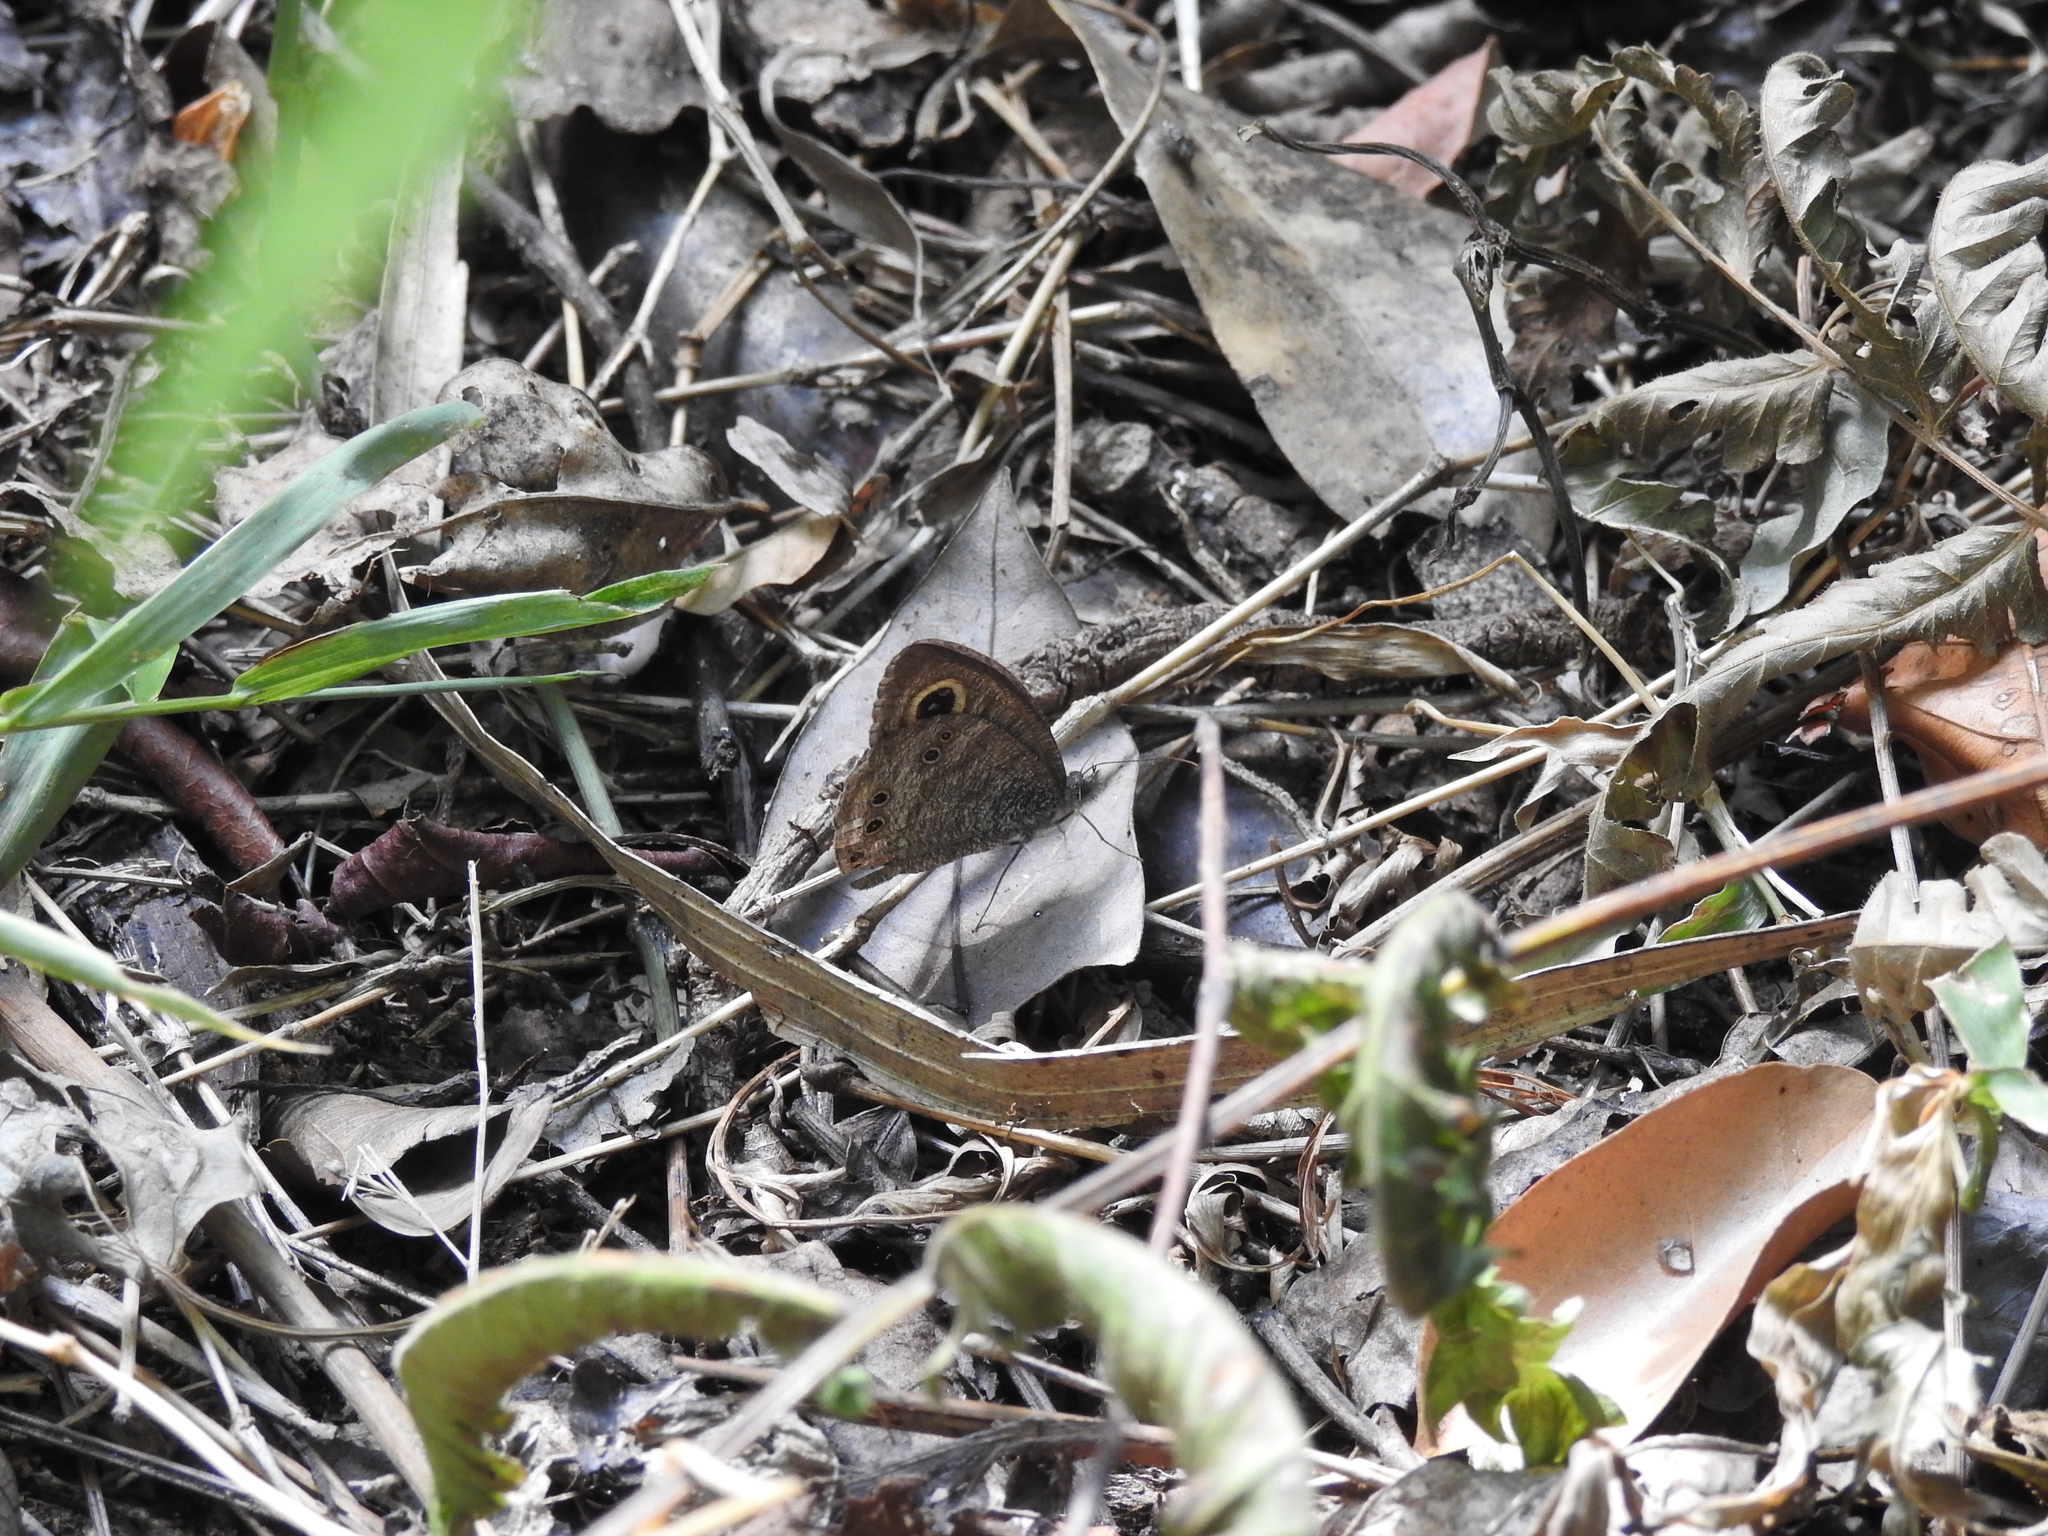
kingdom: Animalia
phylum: Arthropoda
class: Insecta
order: Lepidoptera
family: Nymphalidae
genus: Ypthima
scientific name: Ypthima baldus
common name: Common five-ring
